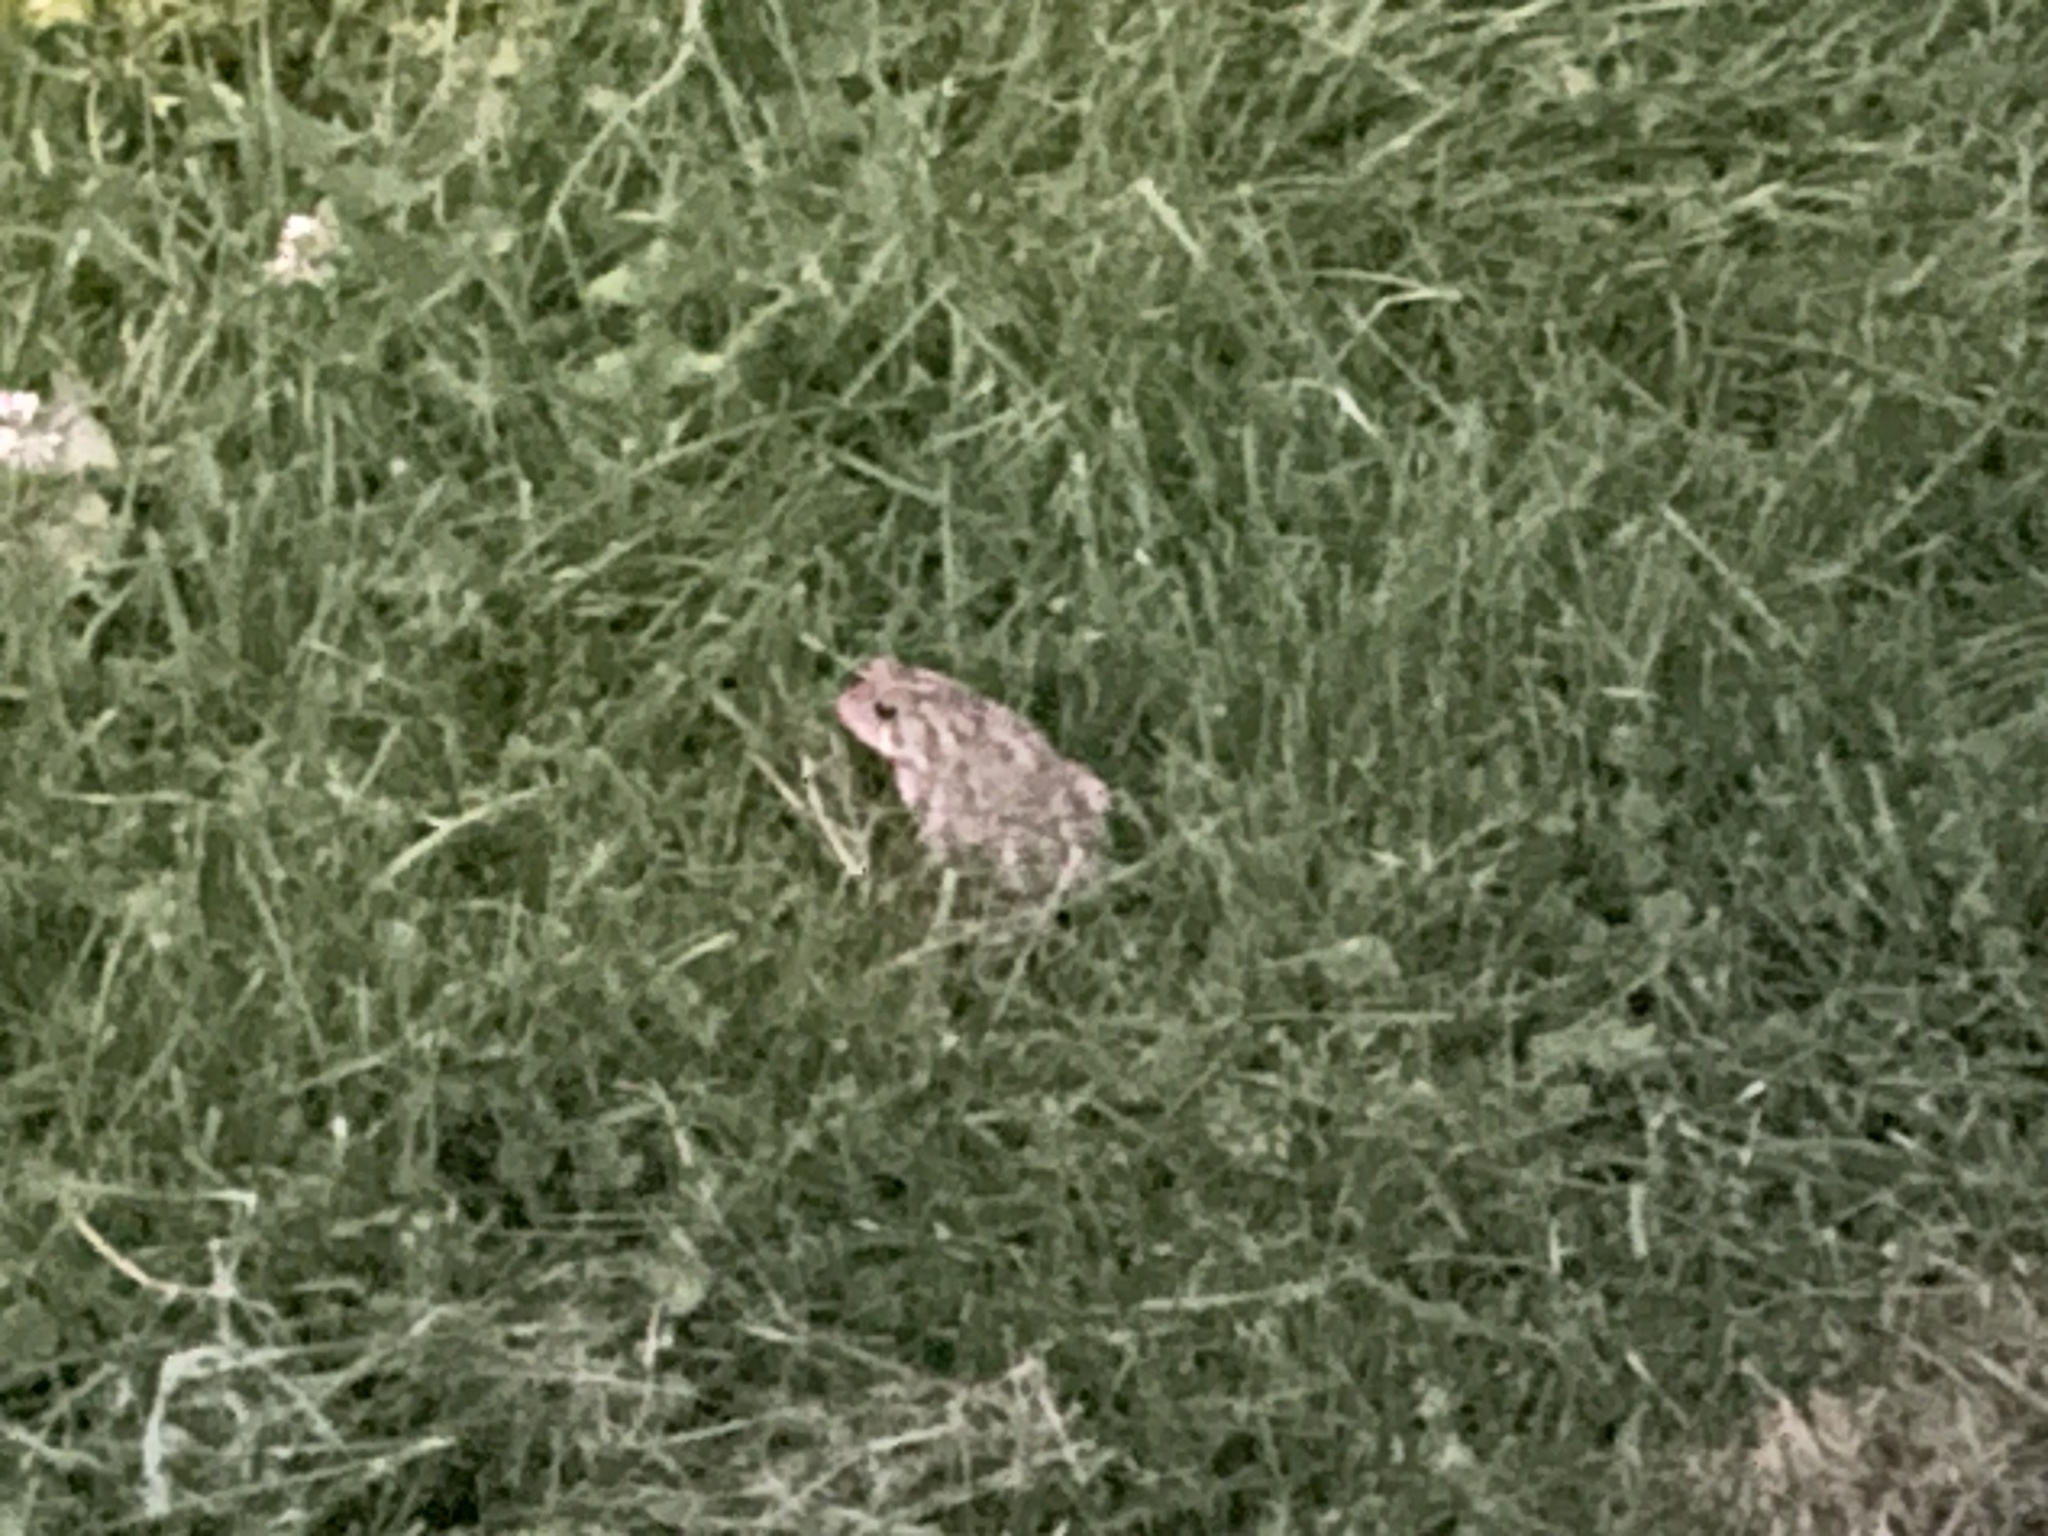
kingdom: Animalia
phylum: Chordata
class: Amphibia
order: Anura
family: Bufonidae
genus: Anaxyrus
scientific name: Anaxyrus americanus
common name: American toad
